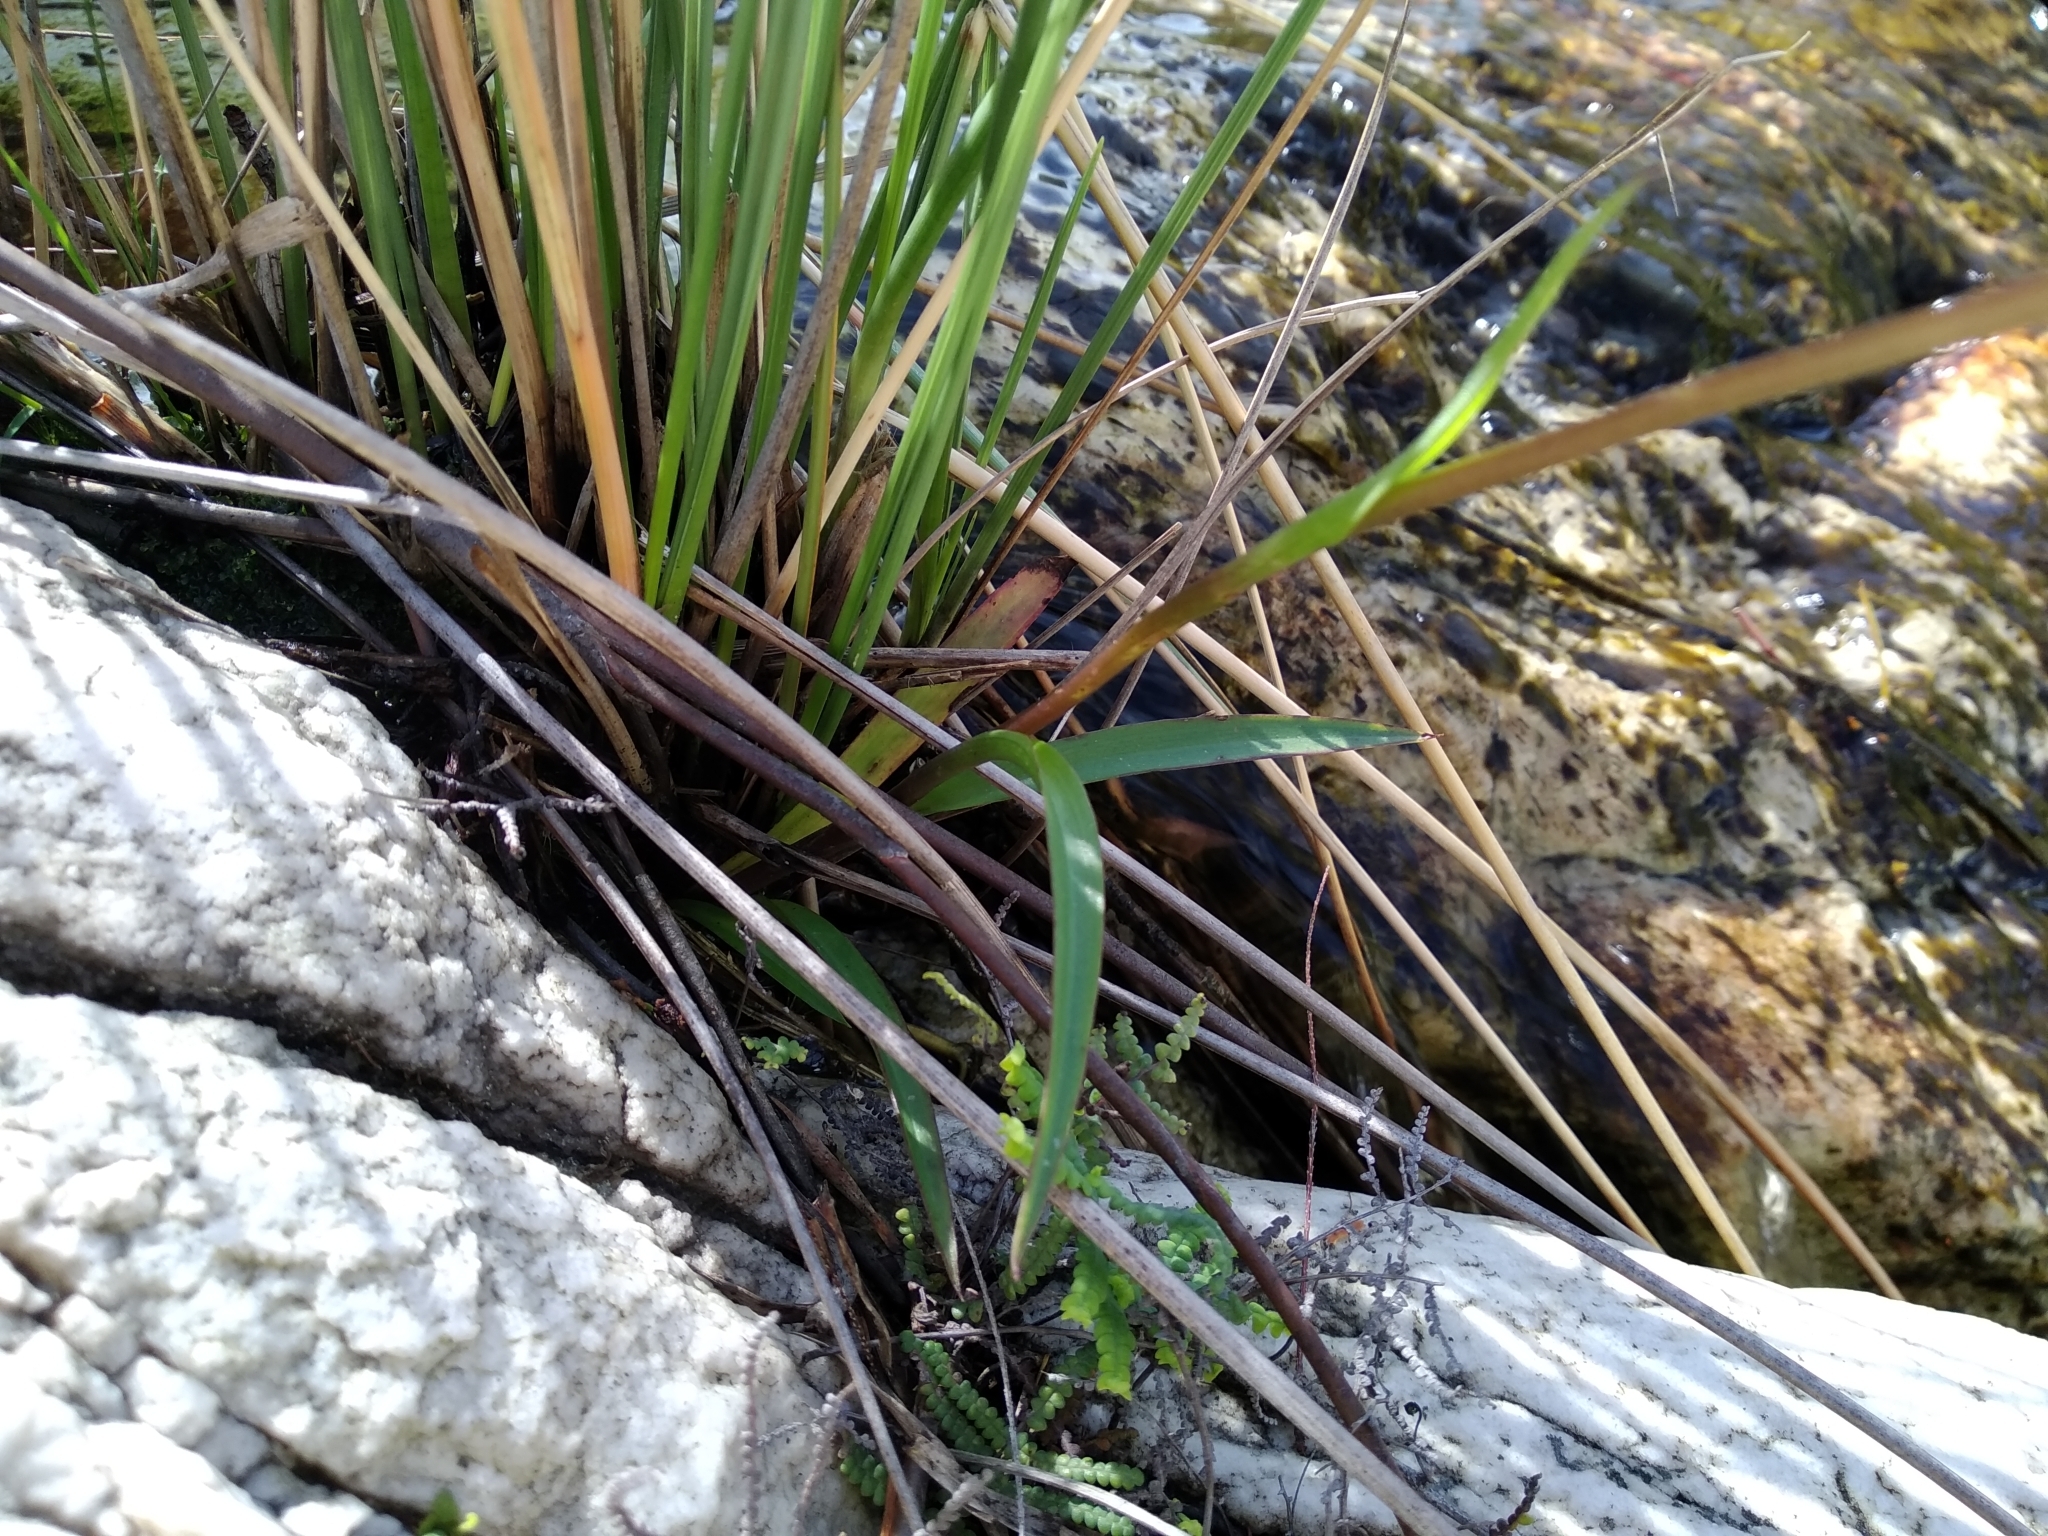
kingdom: Plantae
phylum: Tracheophyta
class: Liliopsida
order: Asparagales
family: Orchidaceae
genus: Disa
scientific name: Disa uncinata
